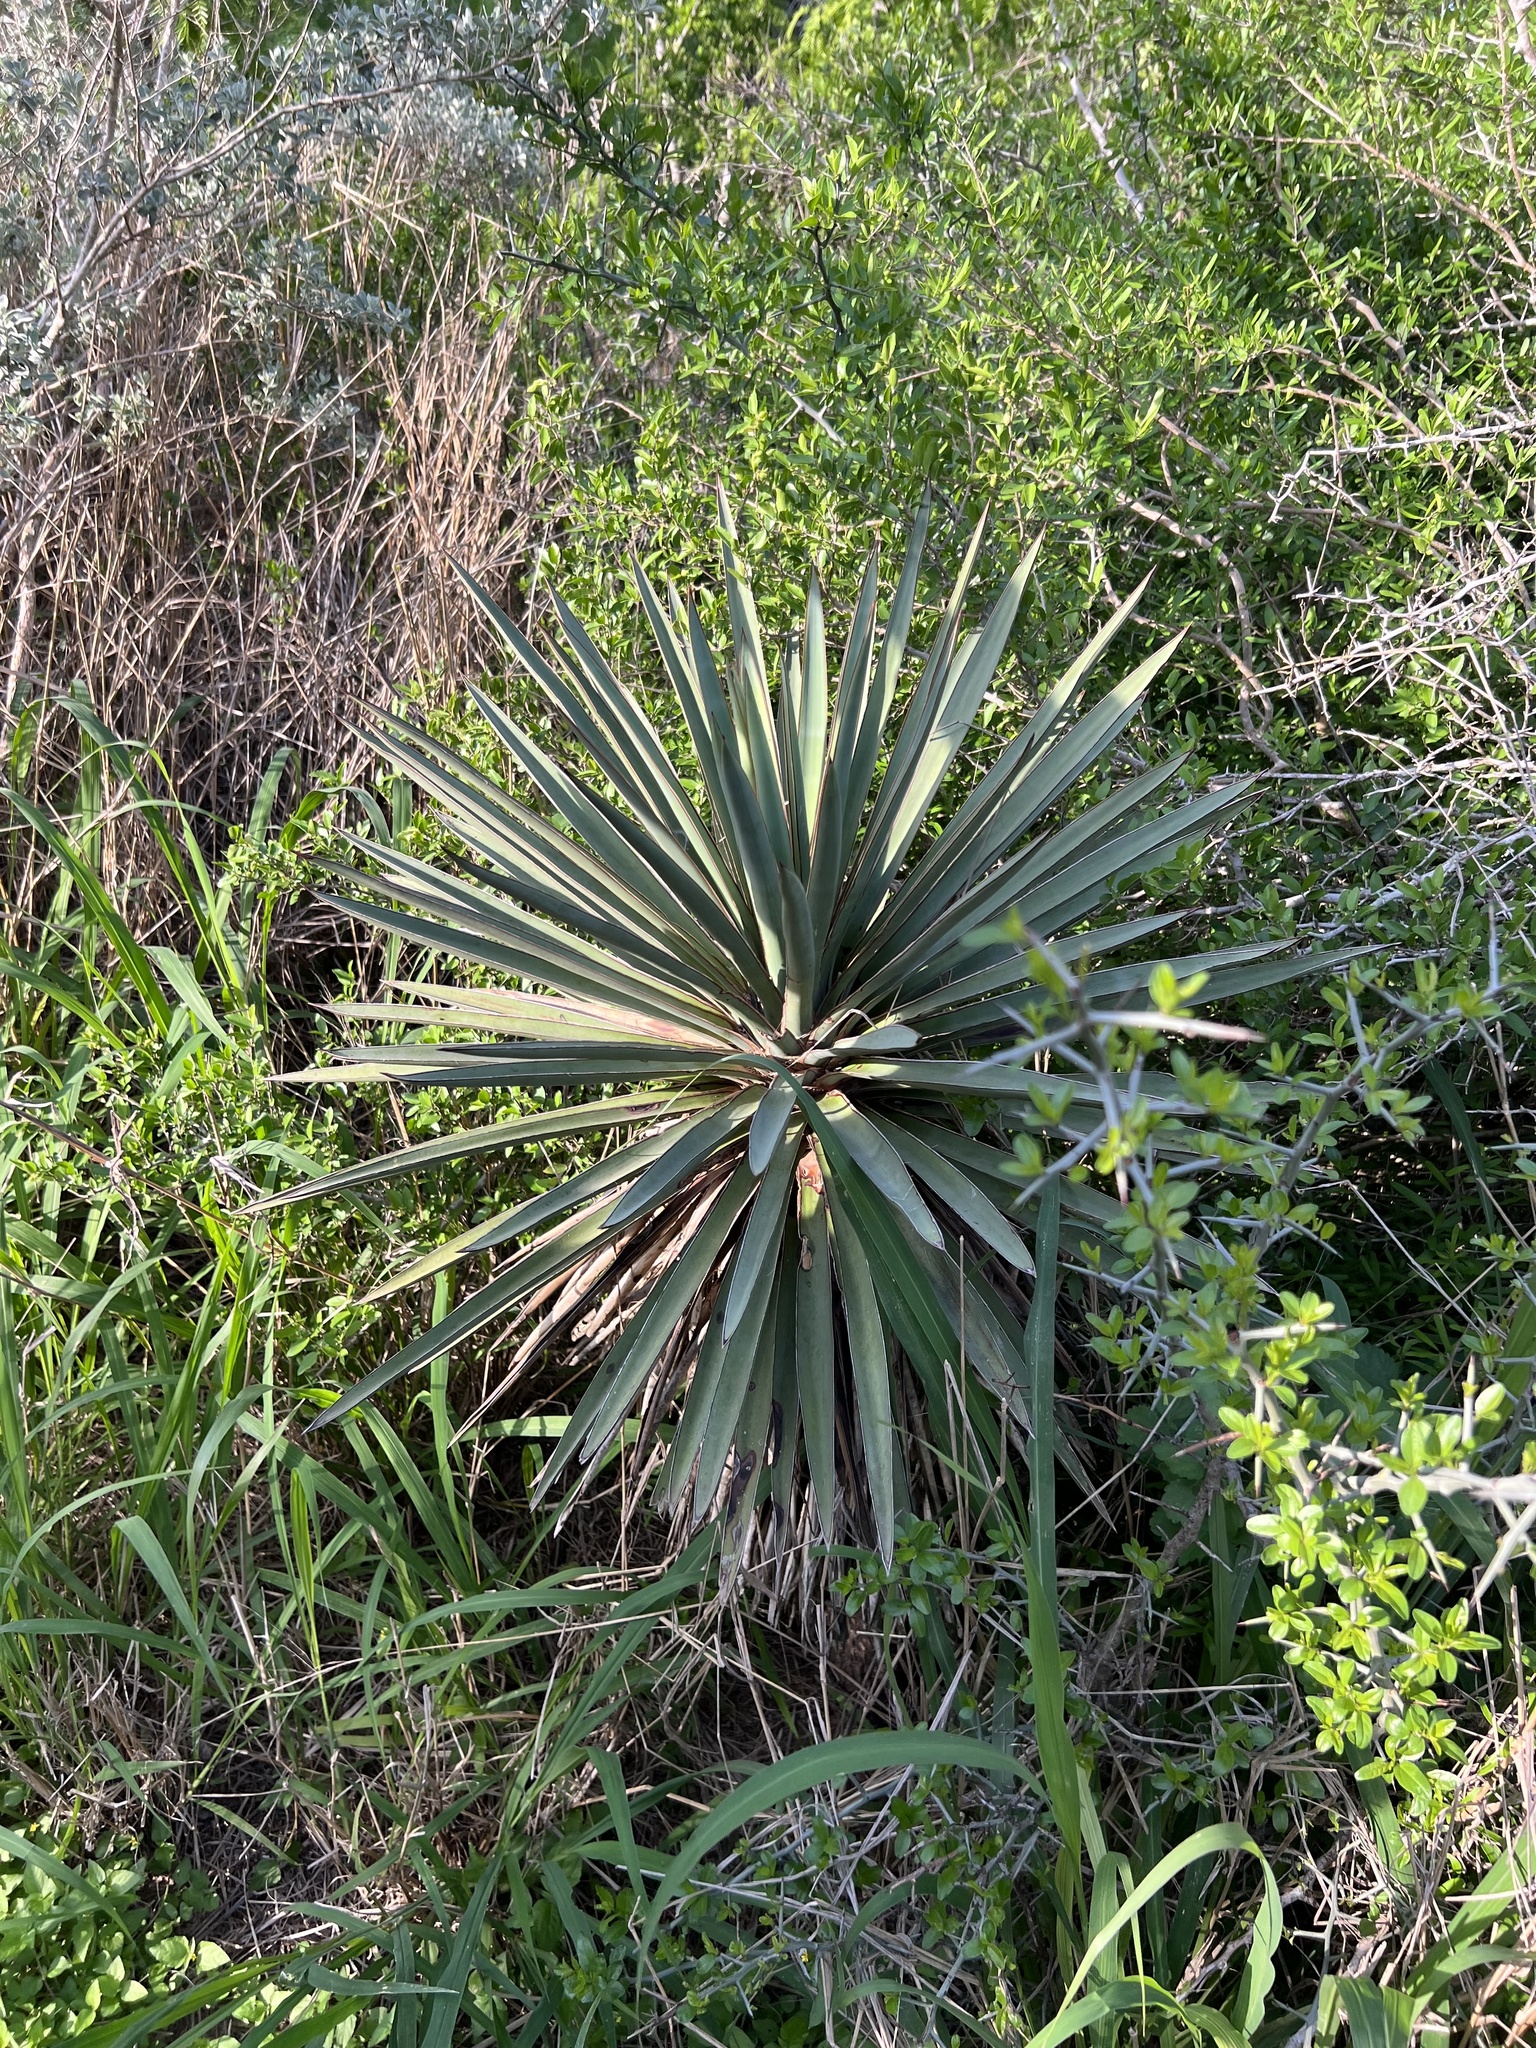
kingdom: Plantae
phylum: Tracheophyta
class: Liliopsida
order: Asparagales
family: Asparagaceae
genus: Yucca
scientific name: Yucca treculiana
